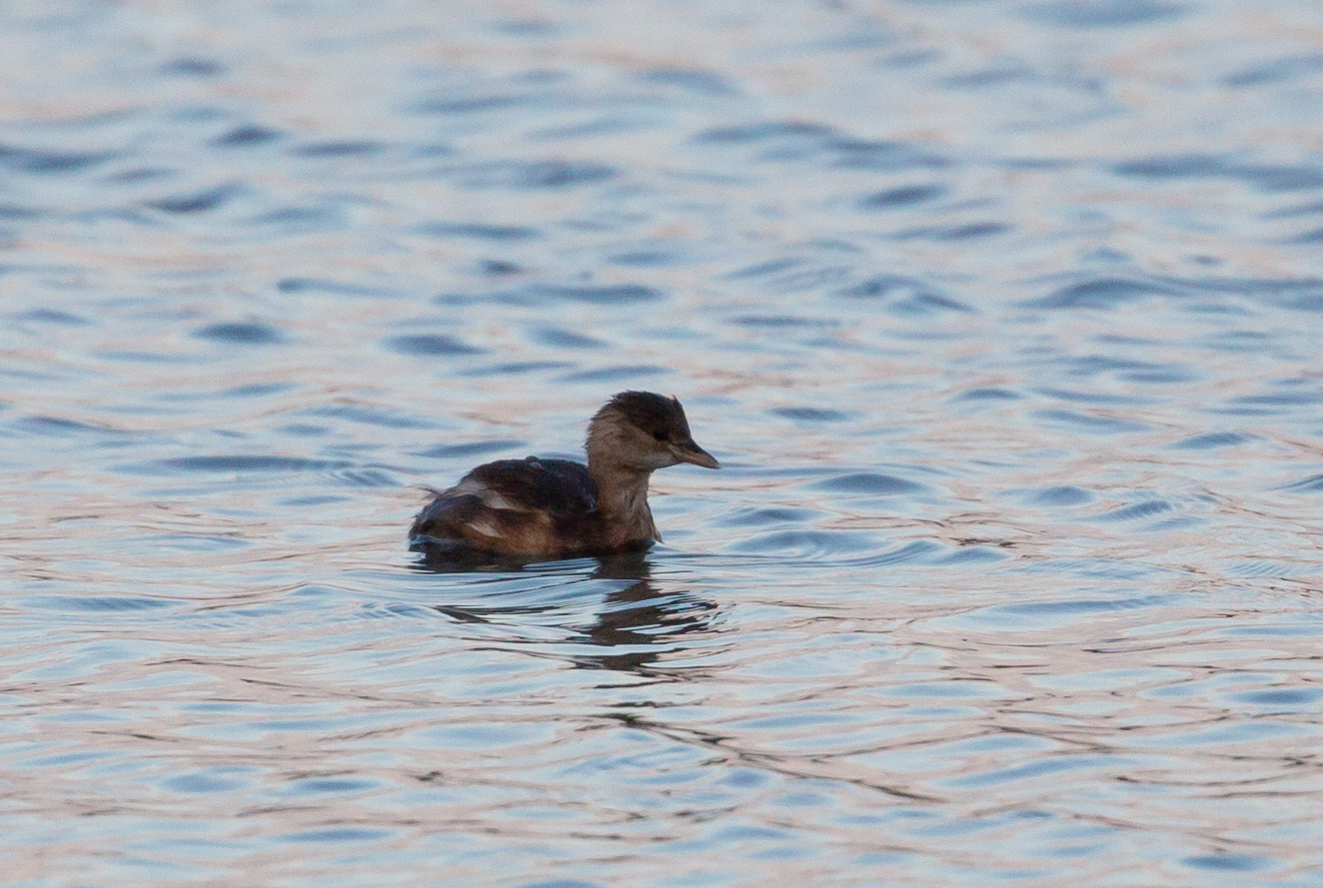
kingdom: Animalia
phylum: Chordata
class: Aves
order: Podicipediformes
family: Podicipedidae
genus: Tachybaptus
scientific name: Tachybaptus ruficollis
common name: Little grebe
